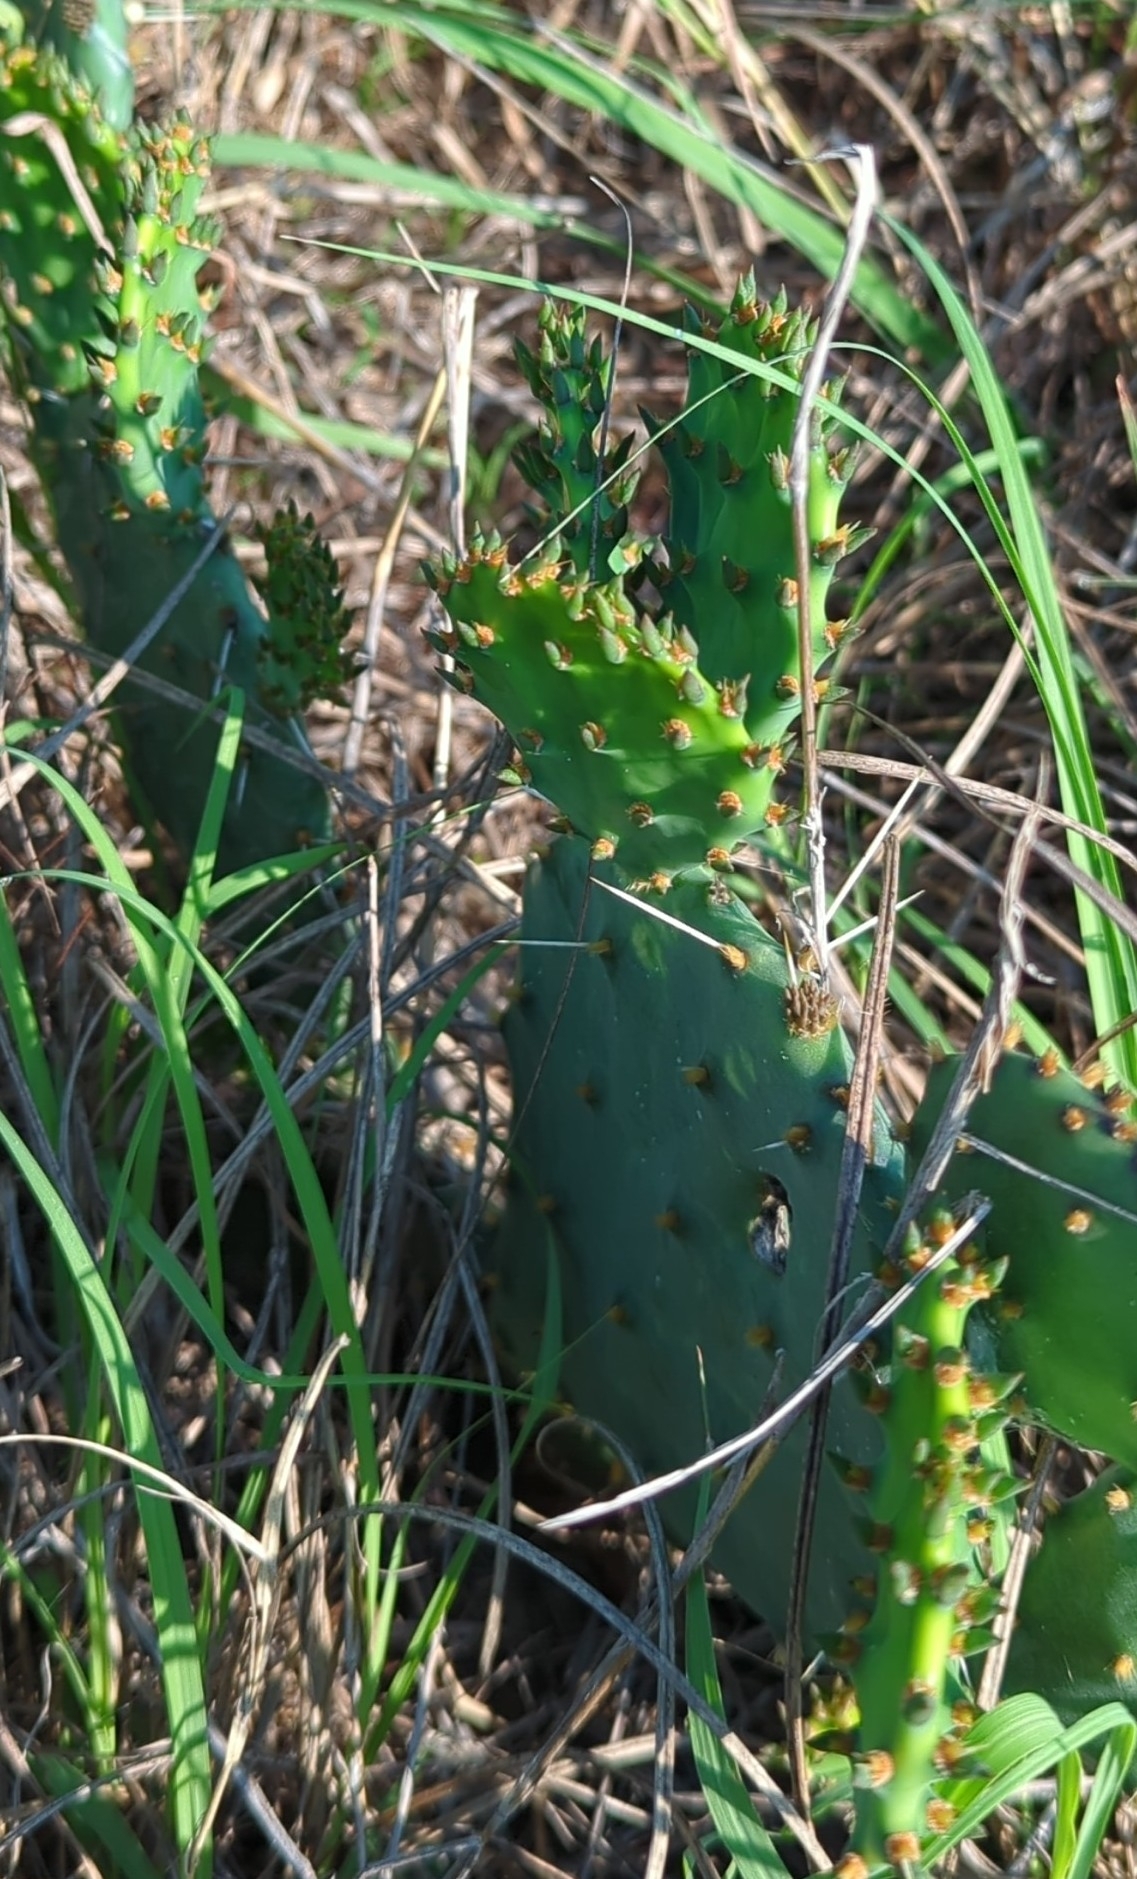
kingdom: Plantae
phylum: Tracheophyta
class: Magnoliopsida
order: Caryophyllales
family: Cactaceae
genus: Opuntia
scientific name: Opuntia macrorhiza
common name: Grassland pricklypear
